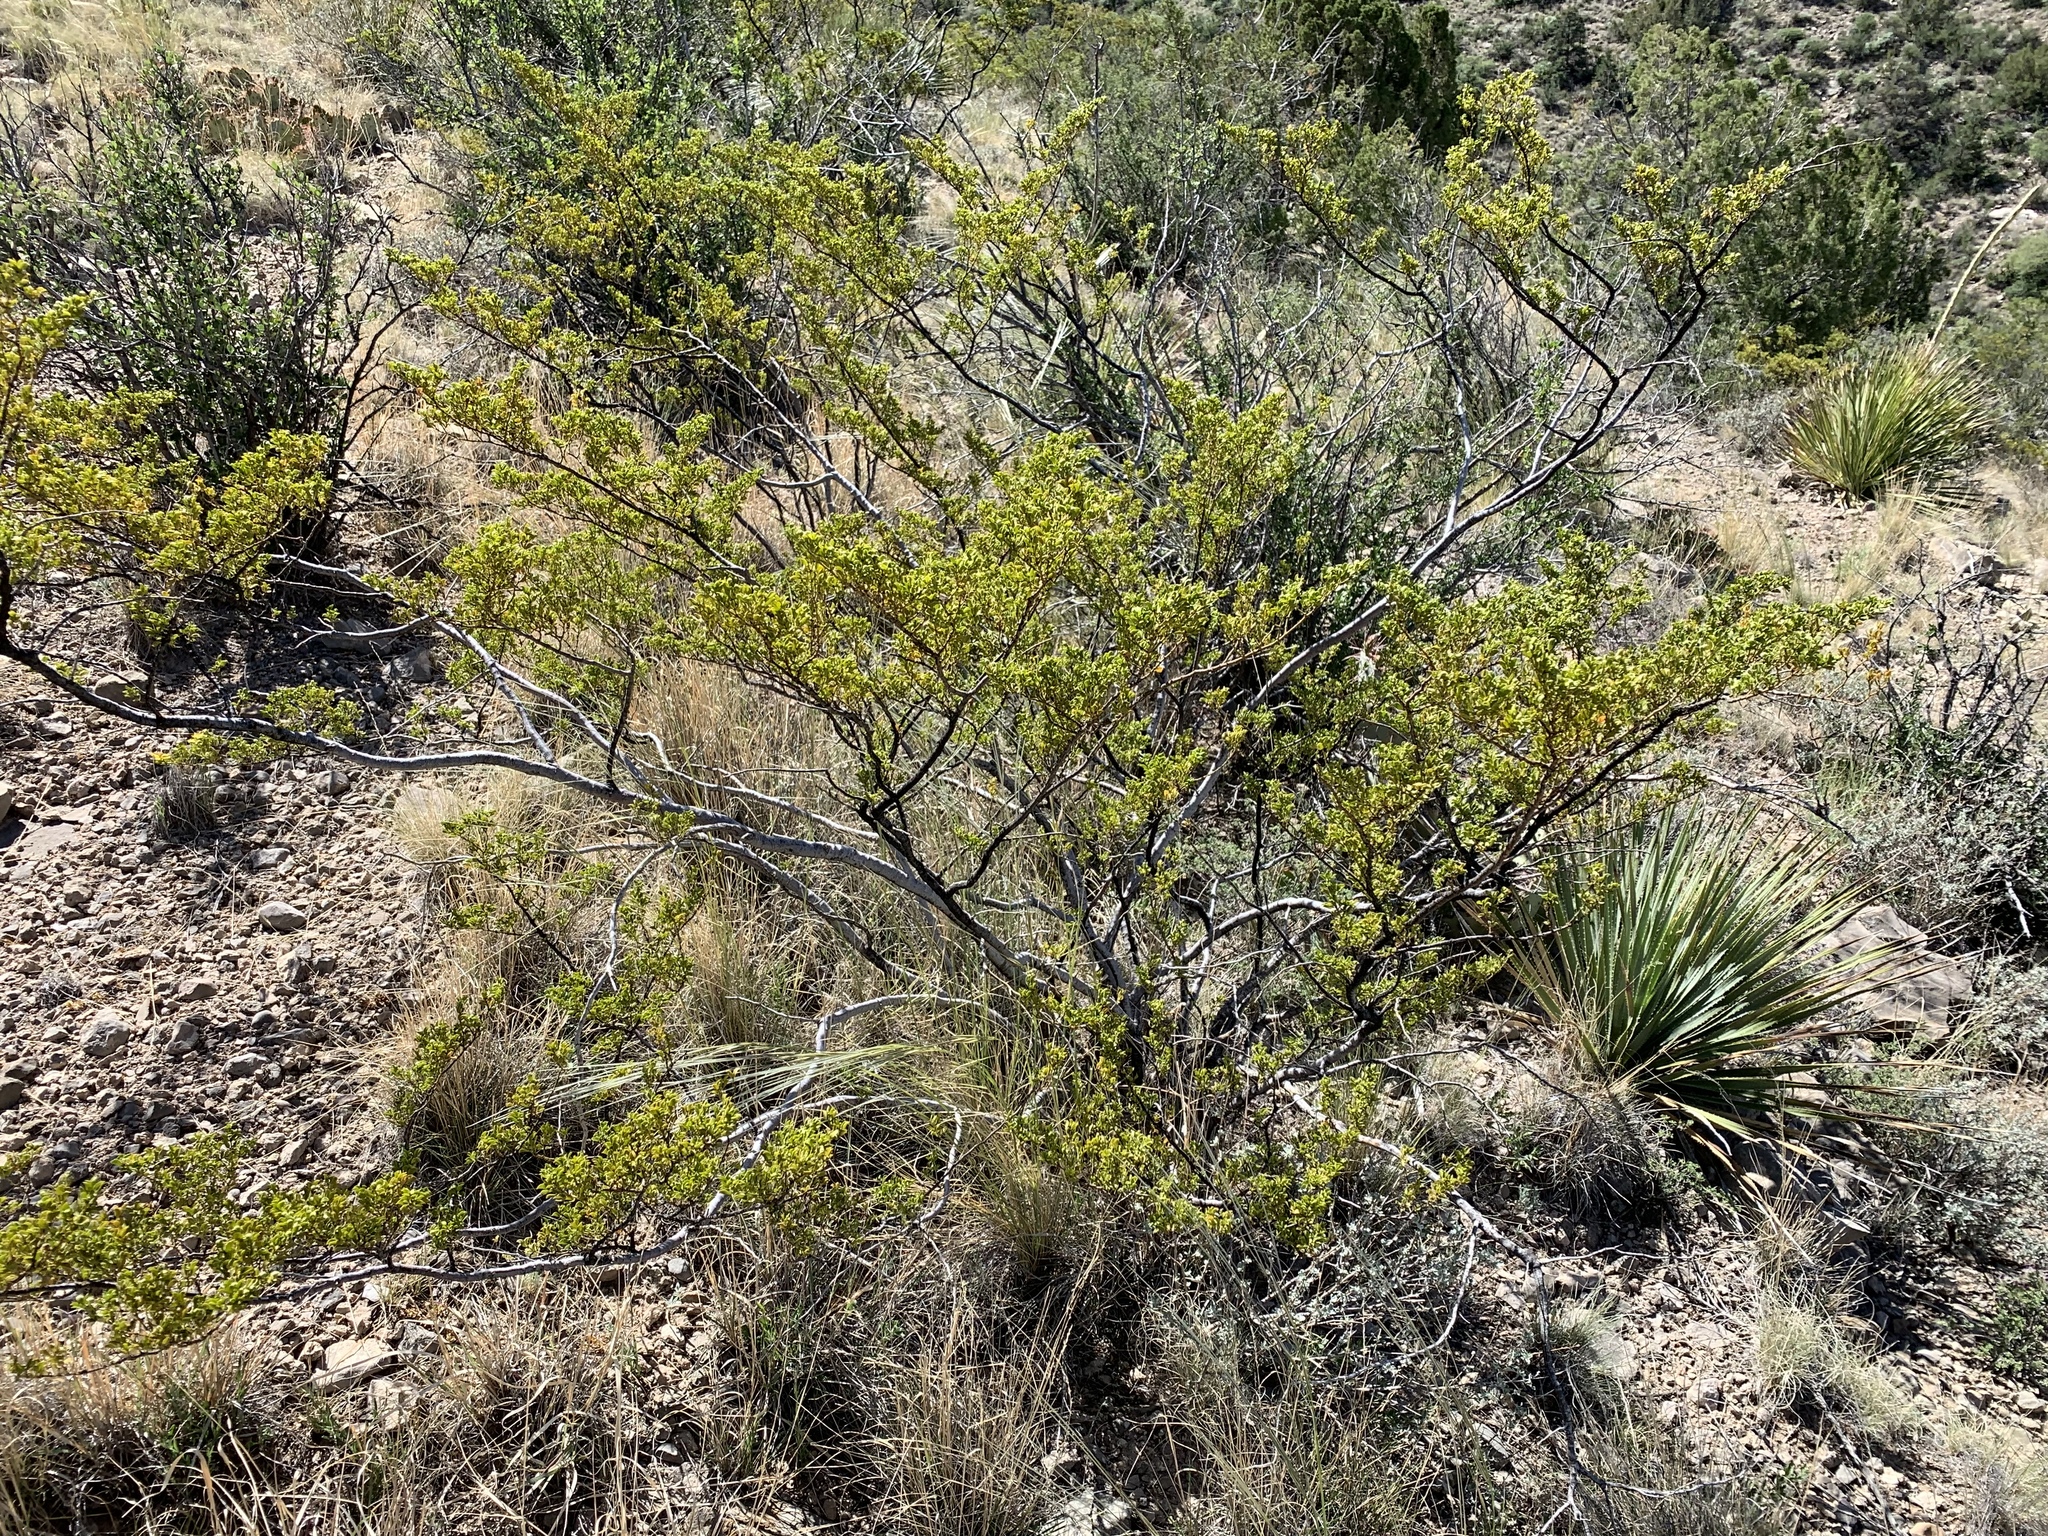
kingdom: Plantae
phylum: Tracheophyta
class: Magnoliopsida
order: Zygophyllales
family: Zygophyllaceae
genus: Larrea
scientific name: Larrea tridentata
